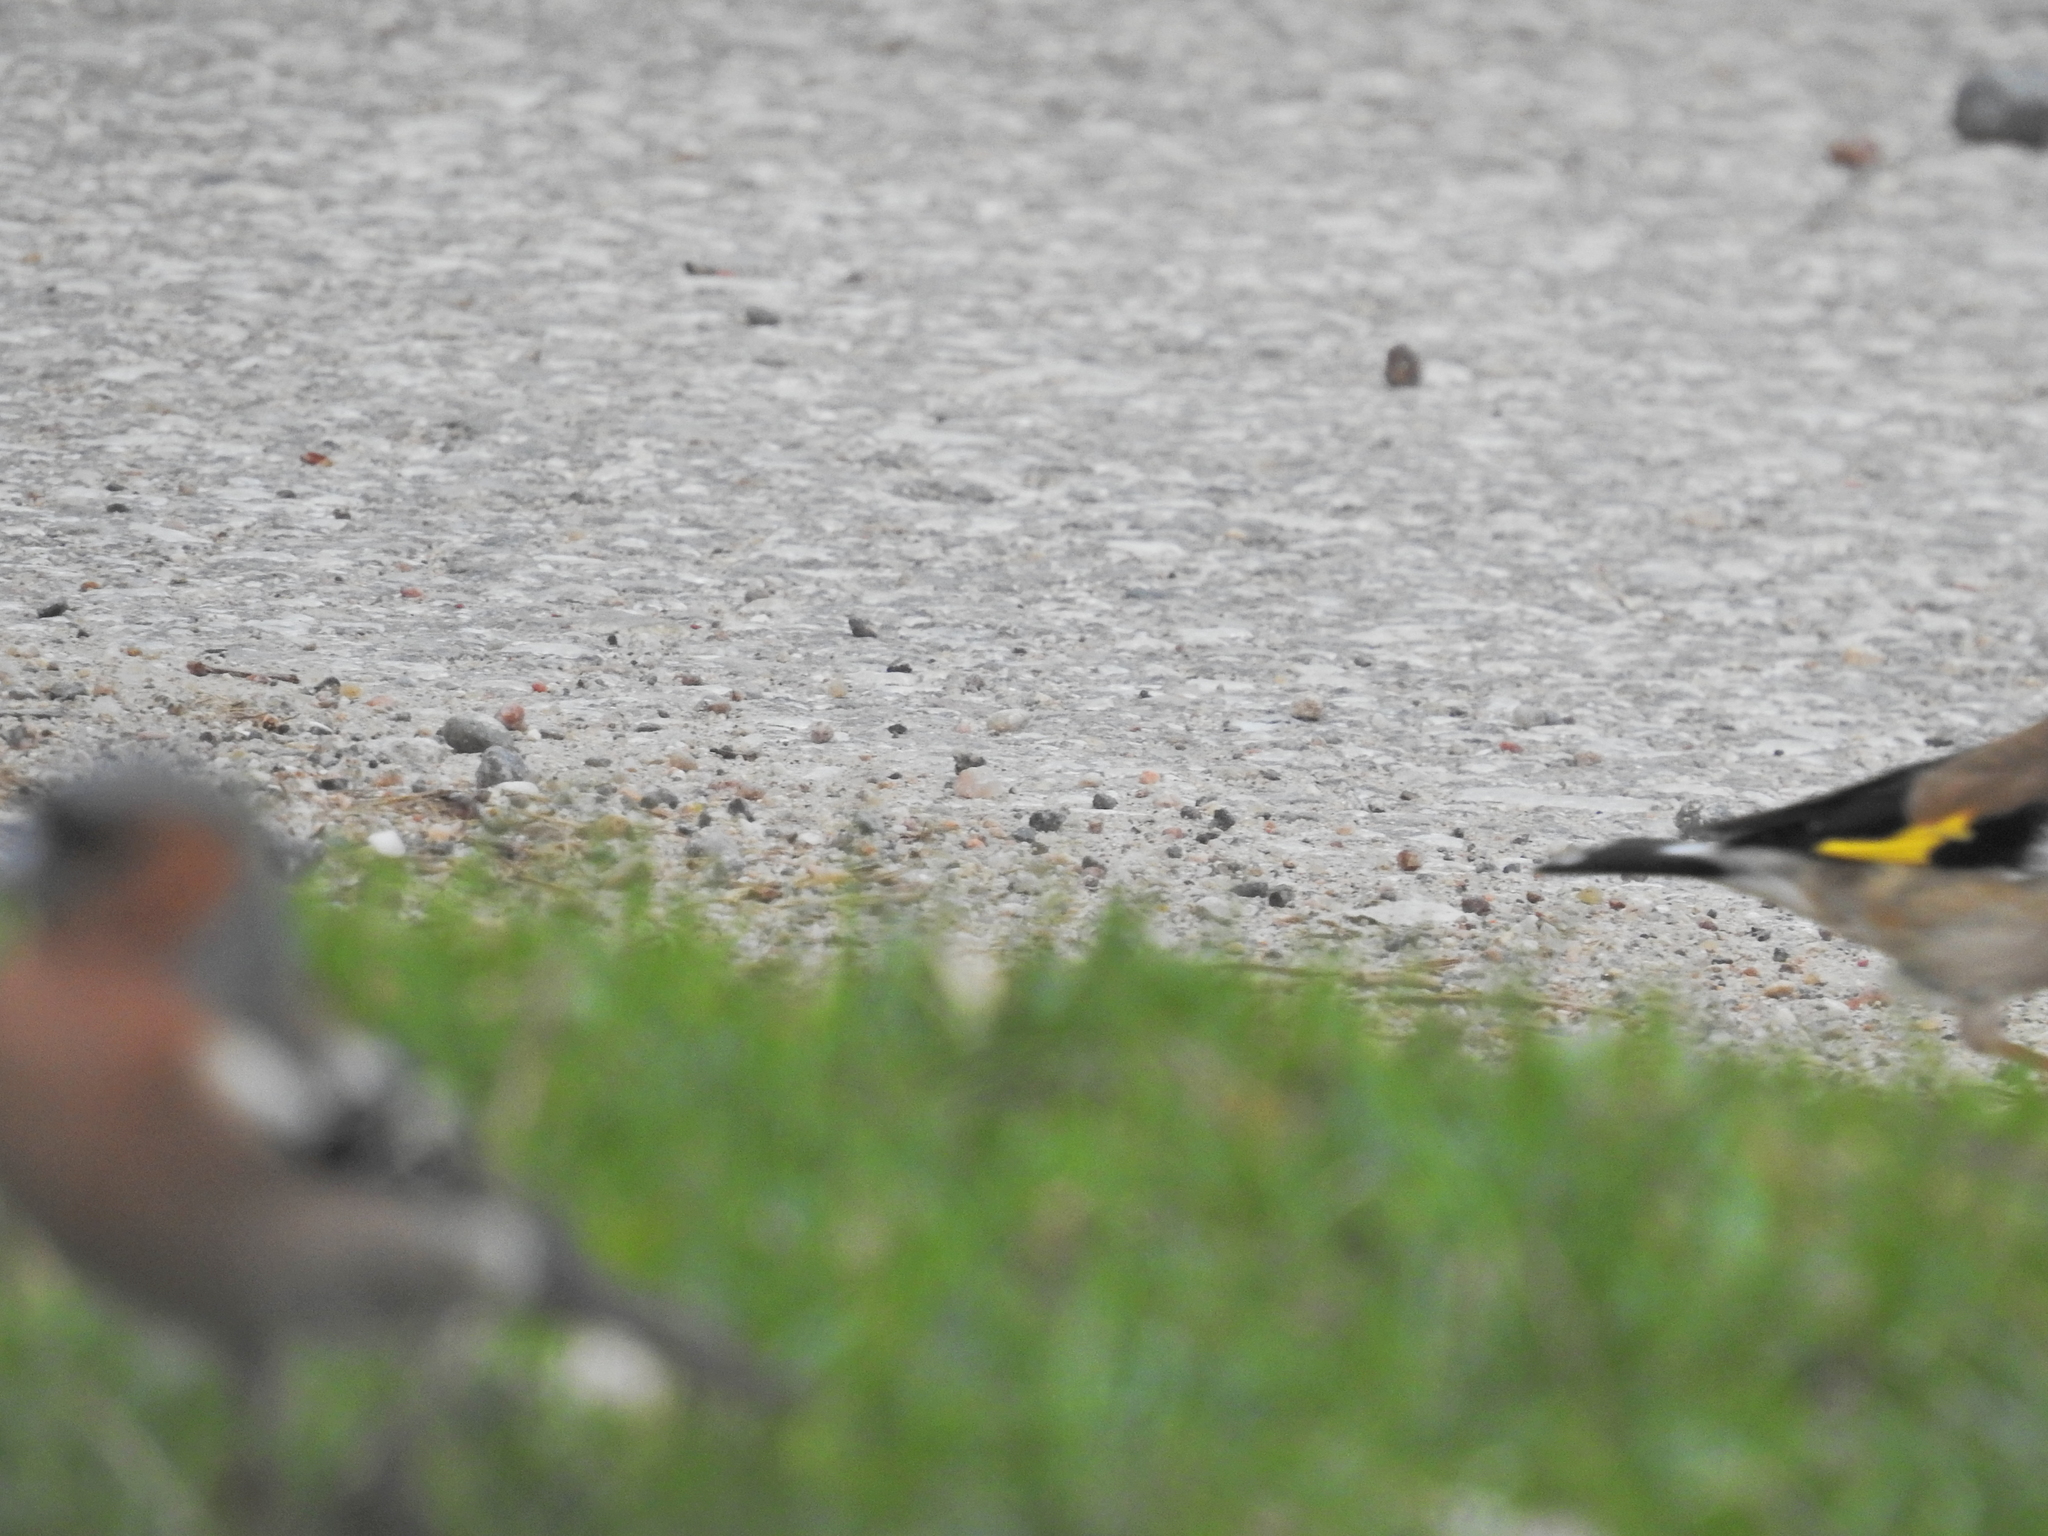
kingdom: Animalia
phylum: Chordata
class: Aves
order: Passeriformes
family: Fringillidae
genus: Carduelis
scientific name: Carduelis carduelis
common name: European goldfinch
